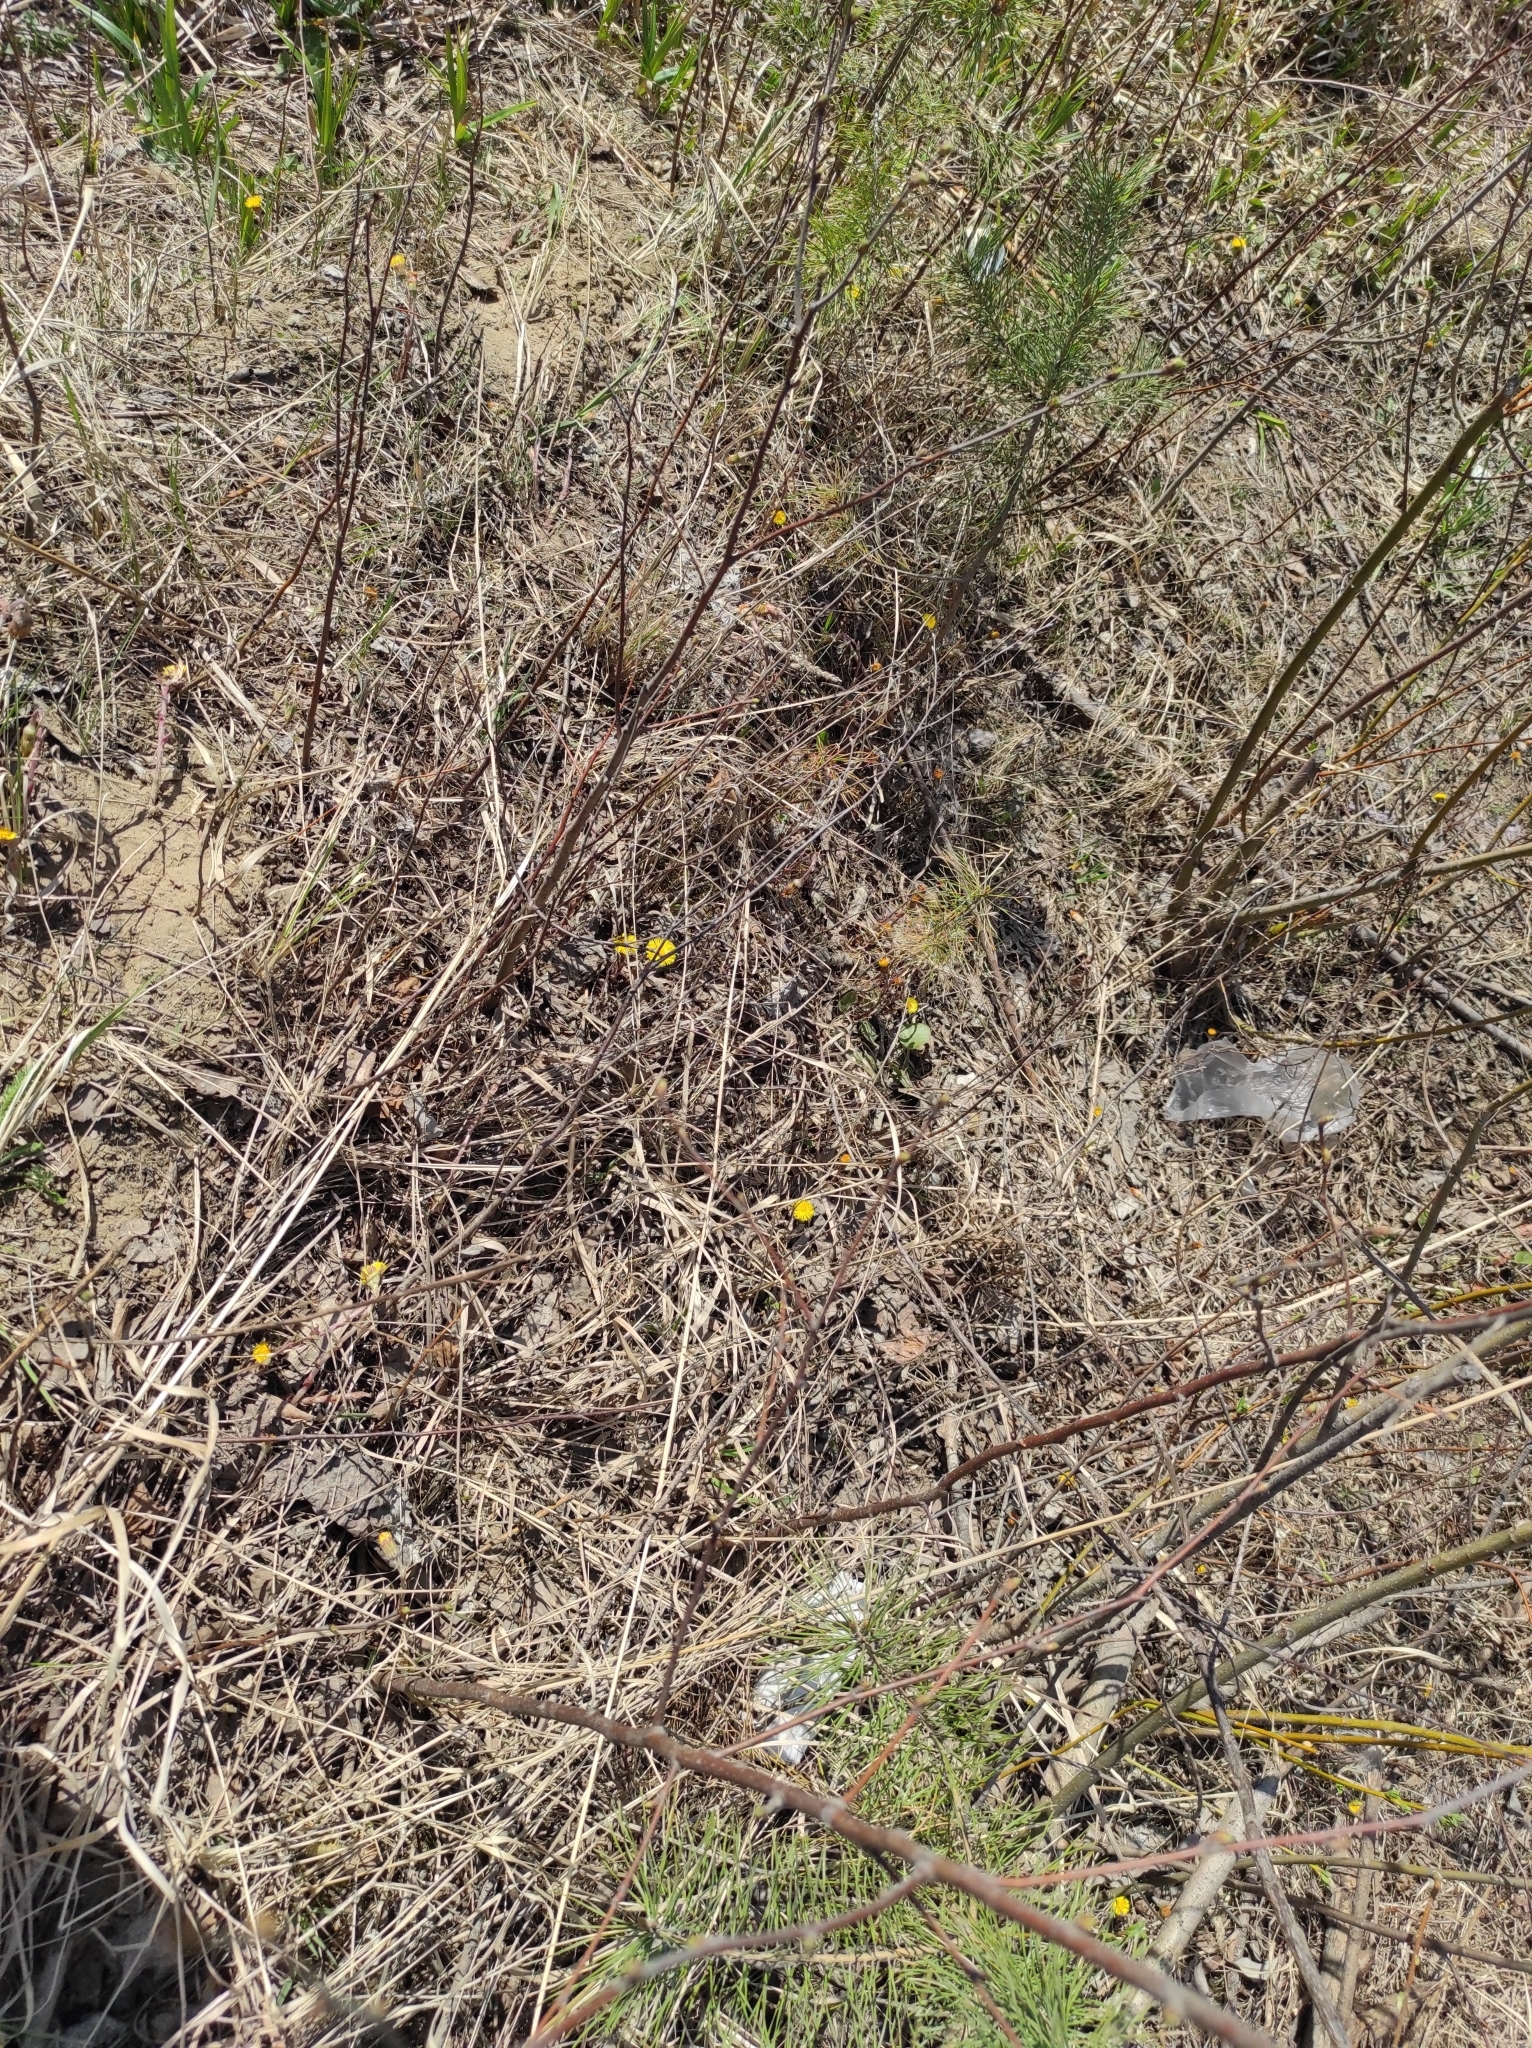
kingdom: Plantae
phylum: Tracheophyta
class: Magnoliopsida
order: Asterales
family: Asteraceae
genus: Tussilago
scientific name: Tussilago farfara
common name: Coltsfoot
